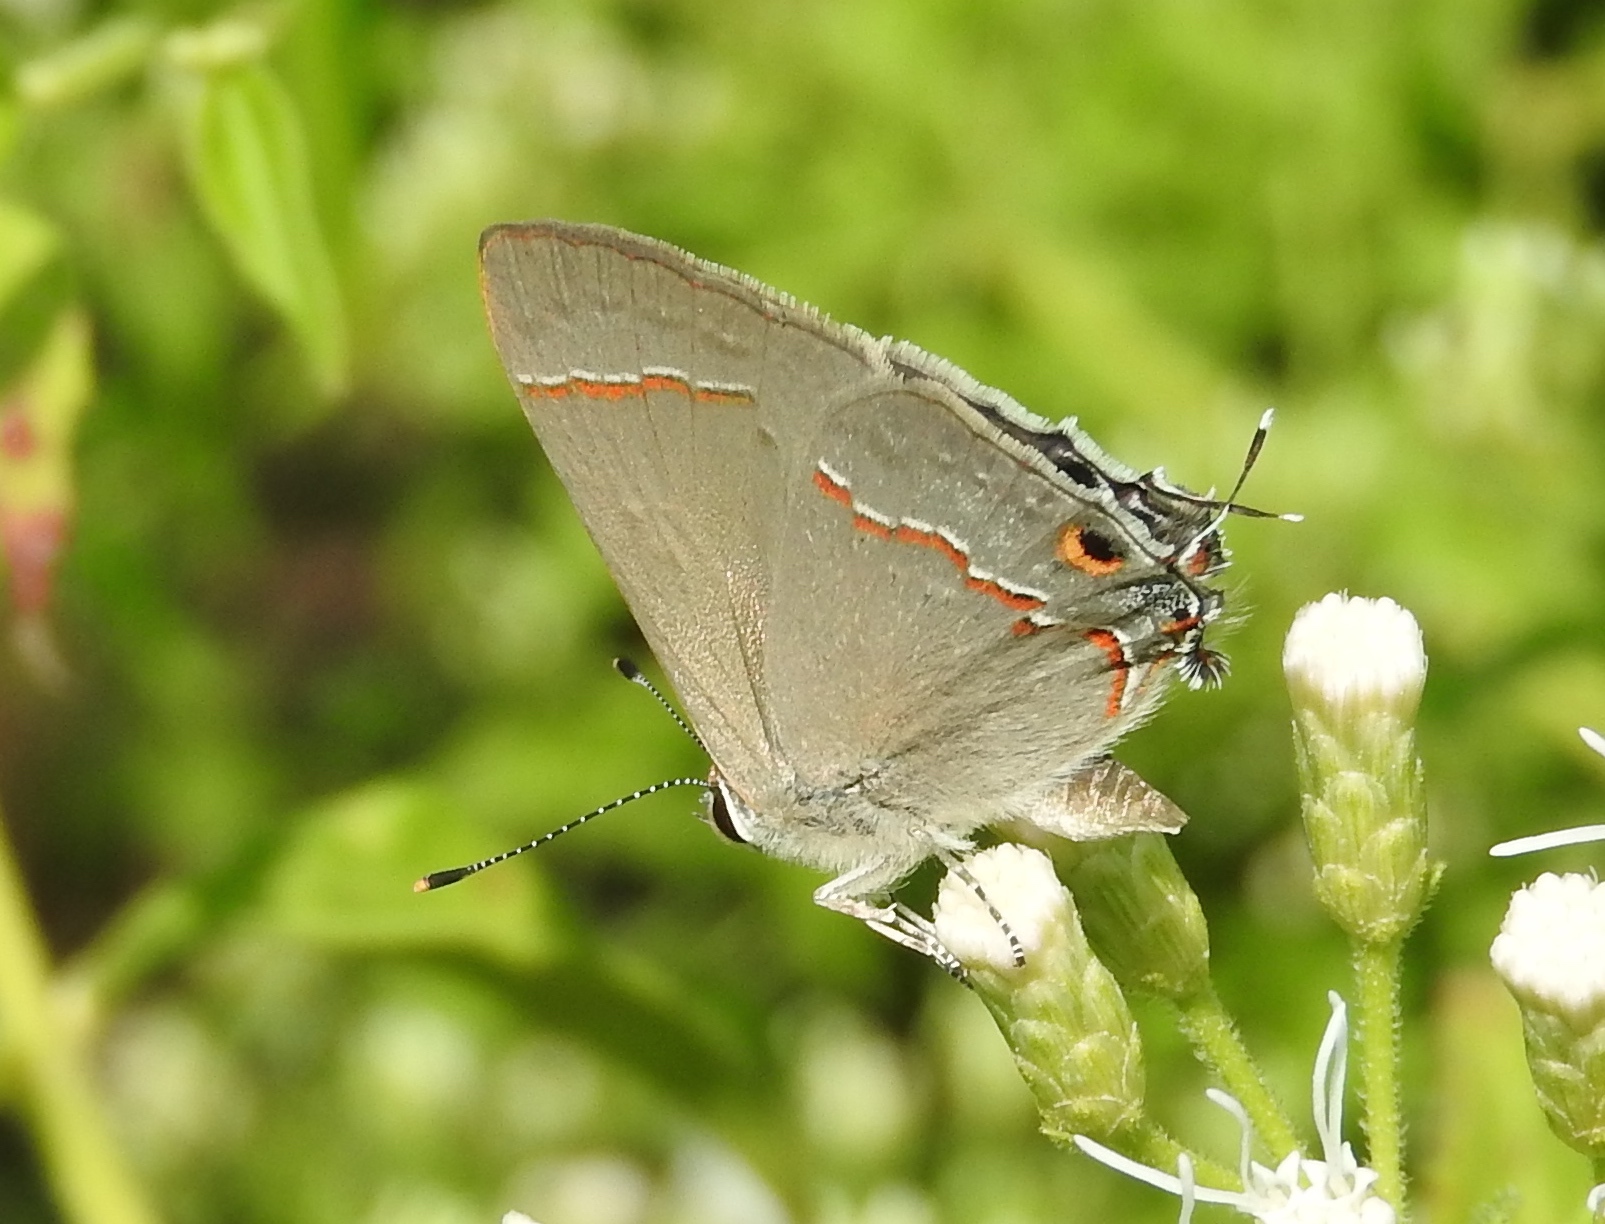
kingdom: Animalia
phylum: Arthropoda
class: Insecta
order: Lepidoptera
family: Lycaenidae
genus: Thecla
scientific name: Thecla bebrycia
